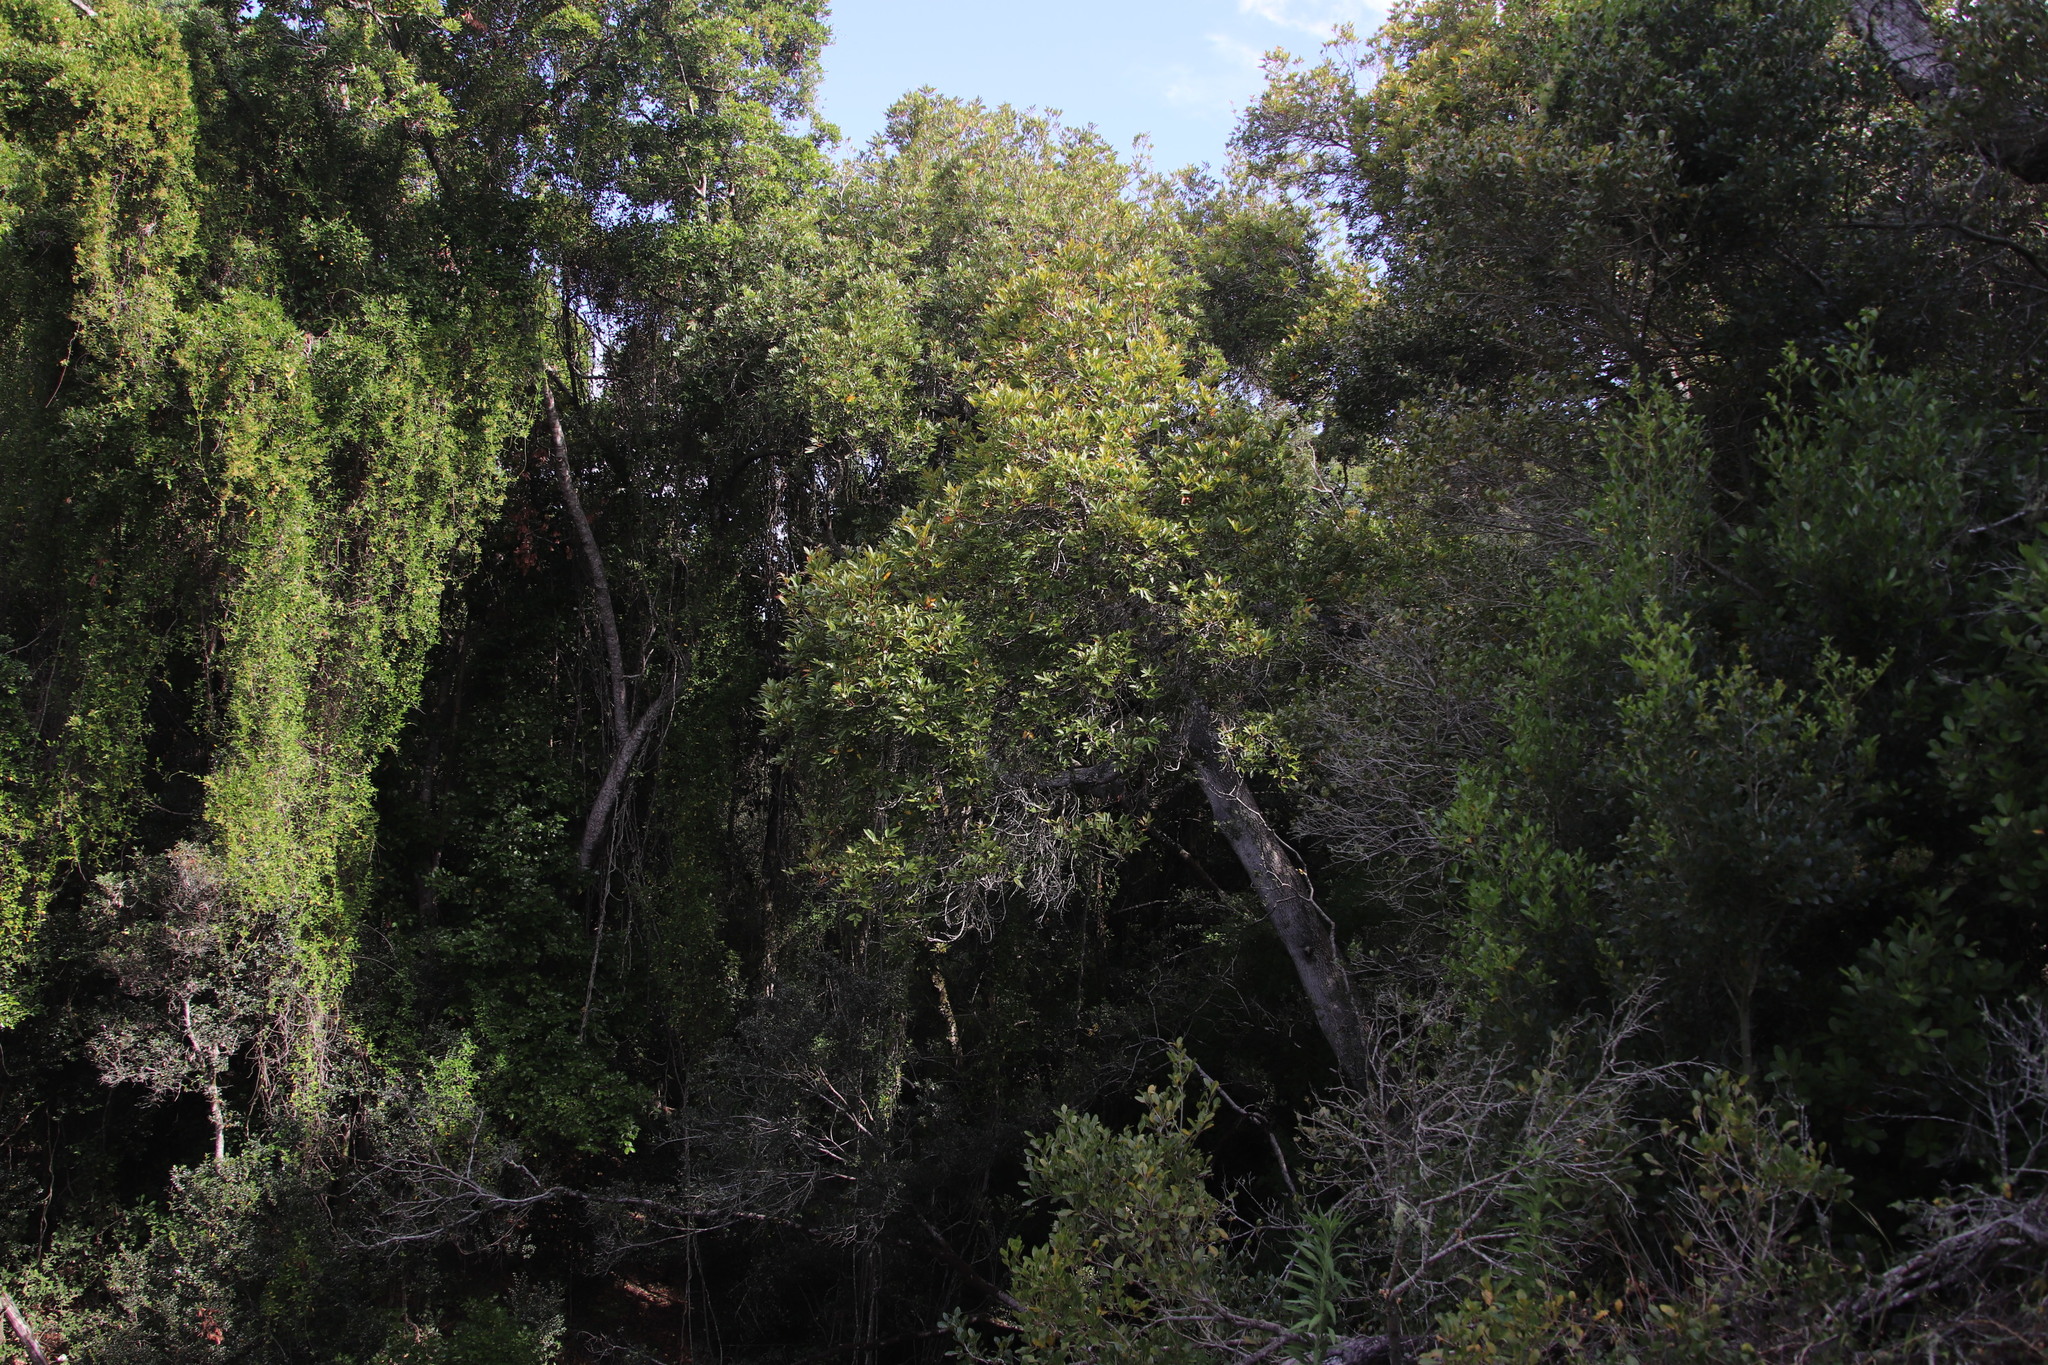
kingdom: Plantae
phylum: Tracheophyta
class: Magnoliopsida
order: Oxalidales
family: Cunoniaceae
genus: Cunonia
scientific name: Cunonia capensis
